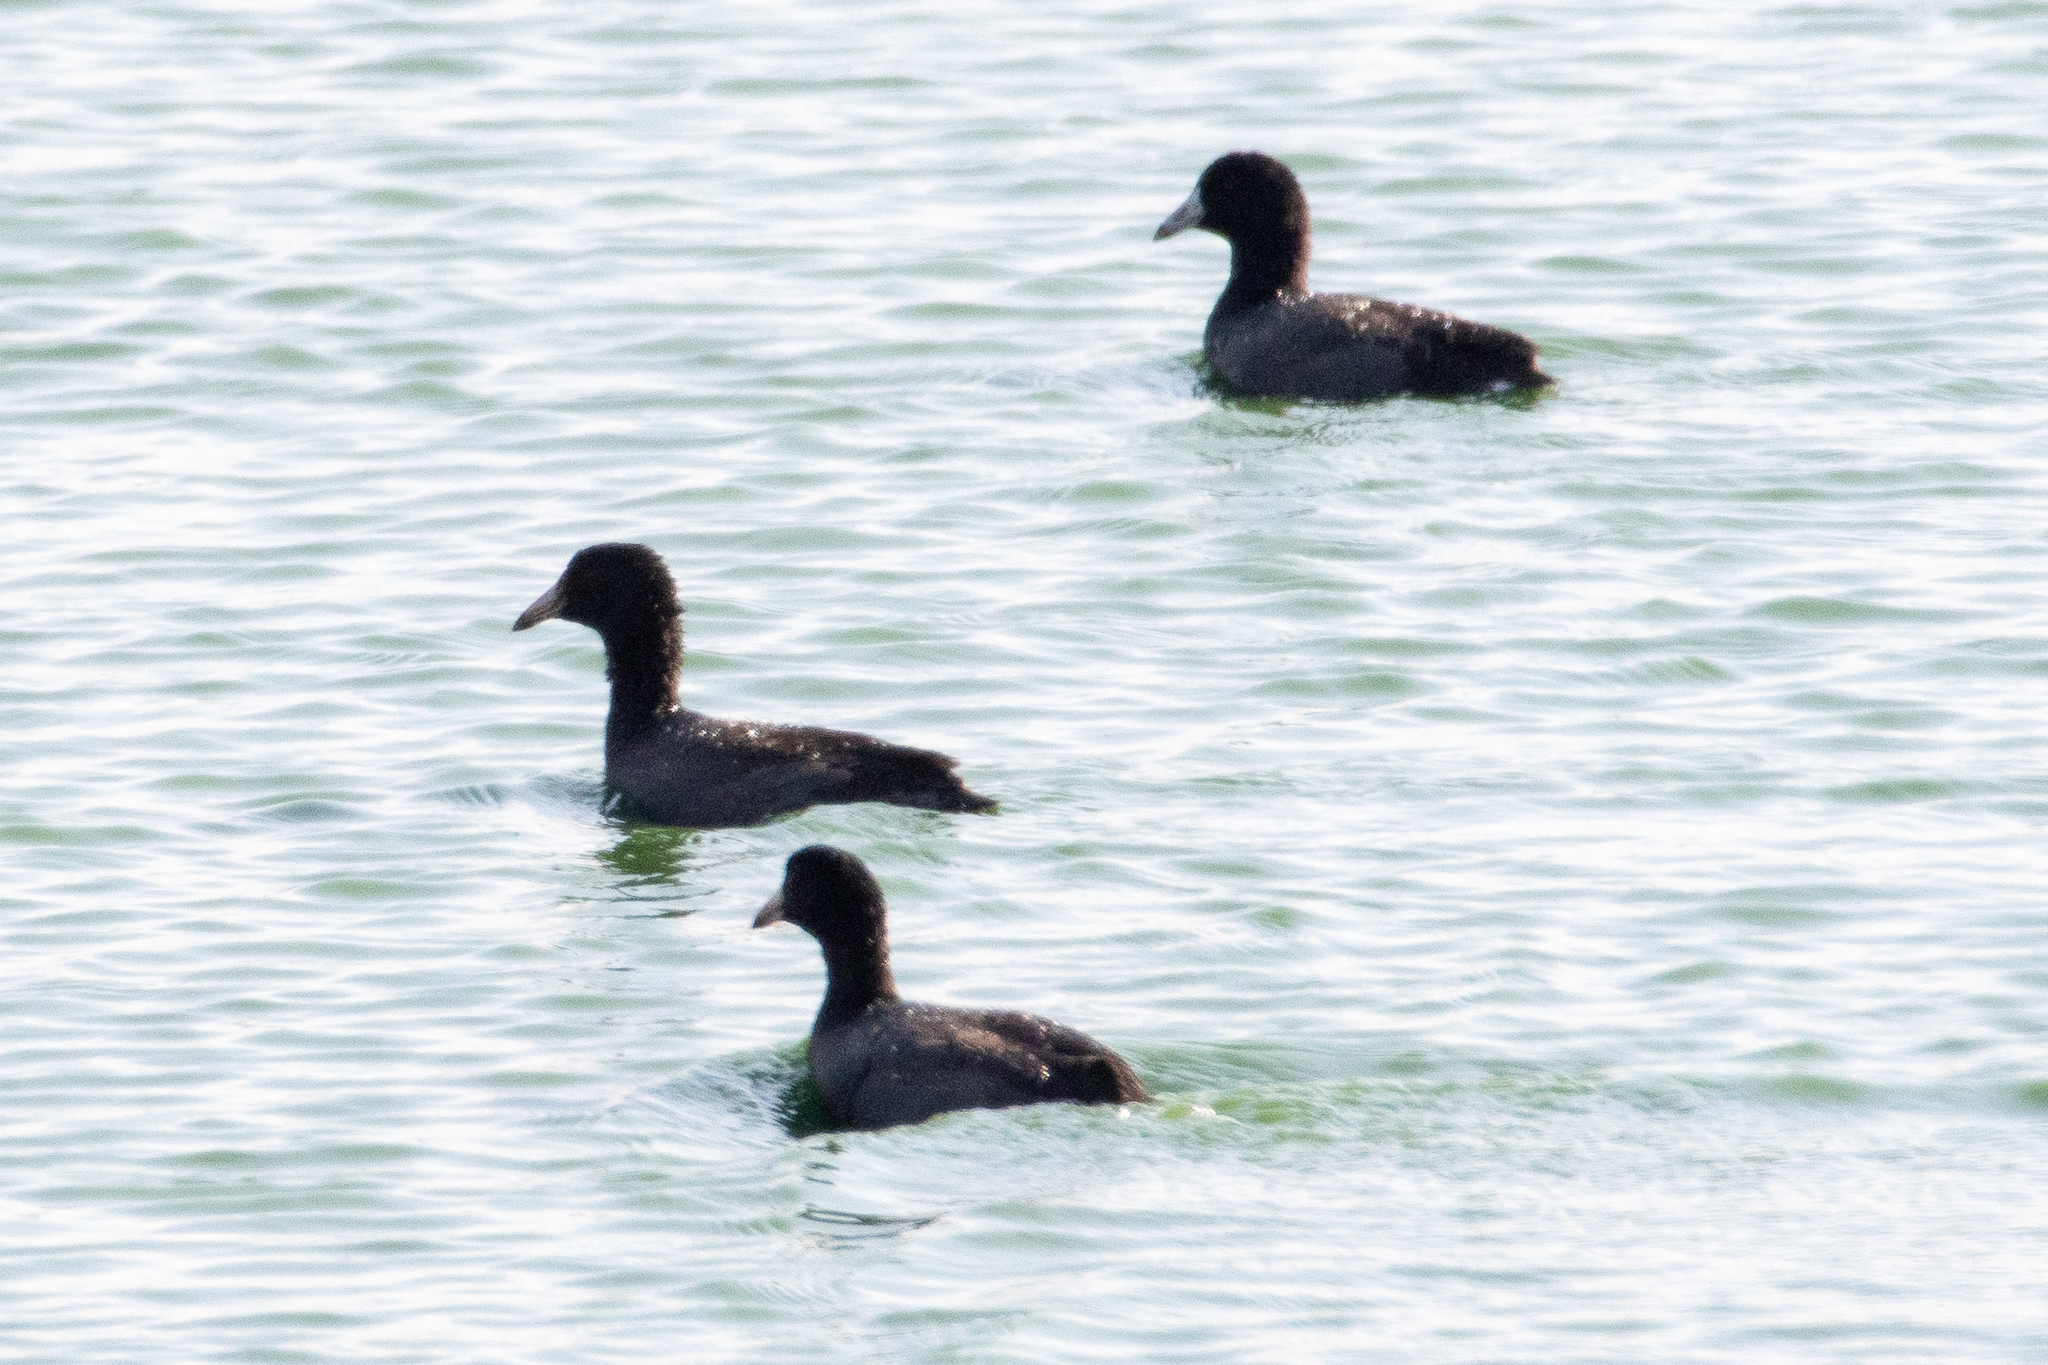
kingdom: Animalia
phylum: Chordata
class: Aves
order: Gruiformes
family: Rallidae
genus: Fulica
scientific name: Fulica americana
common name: American coot
